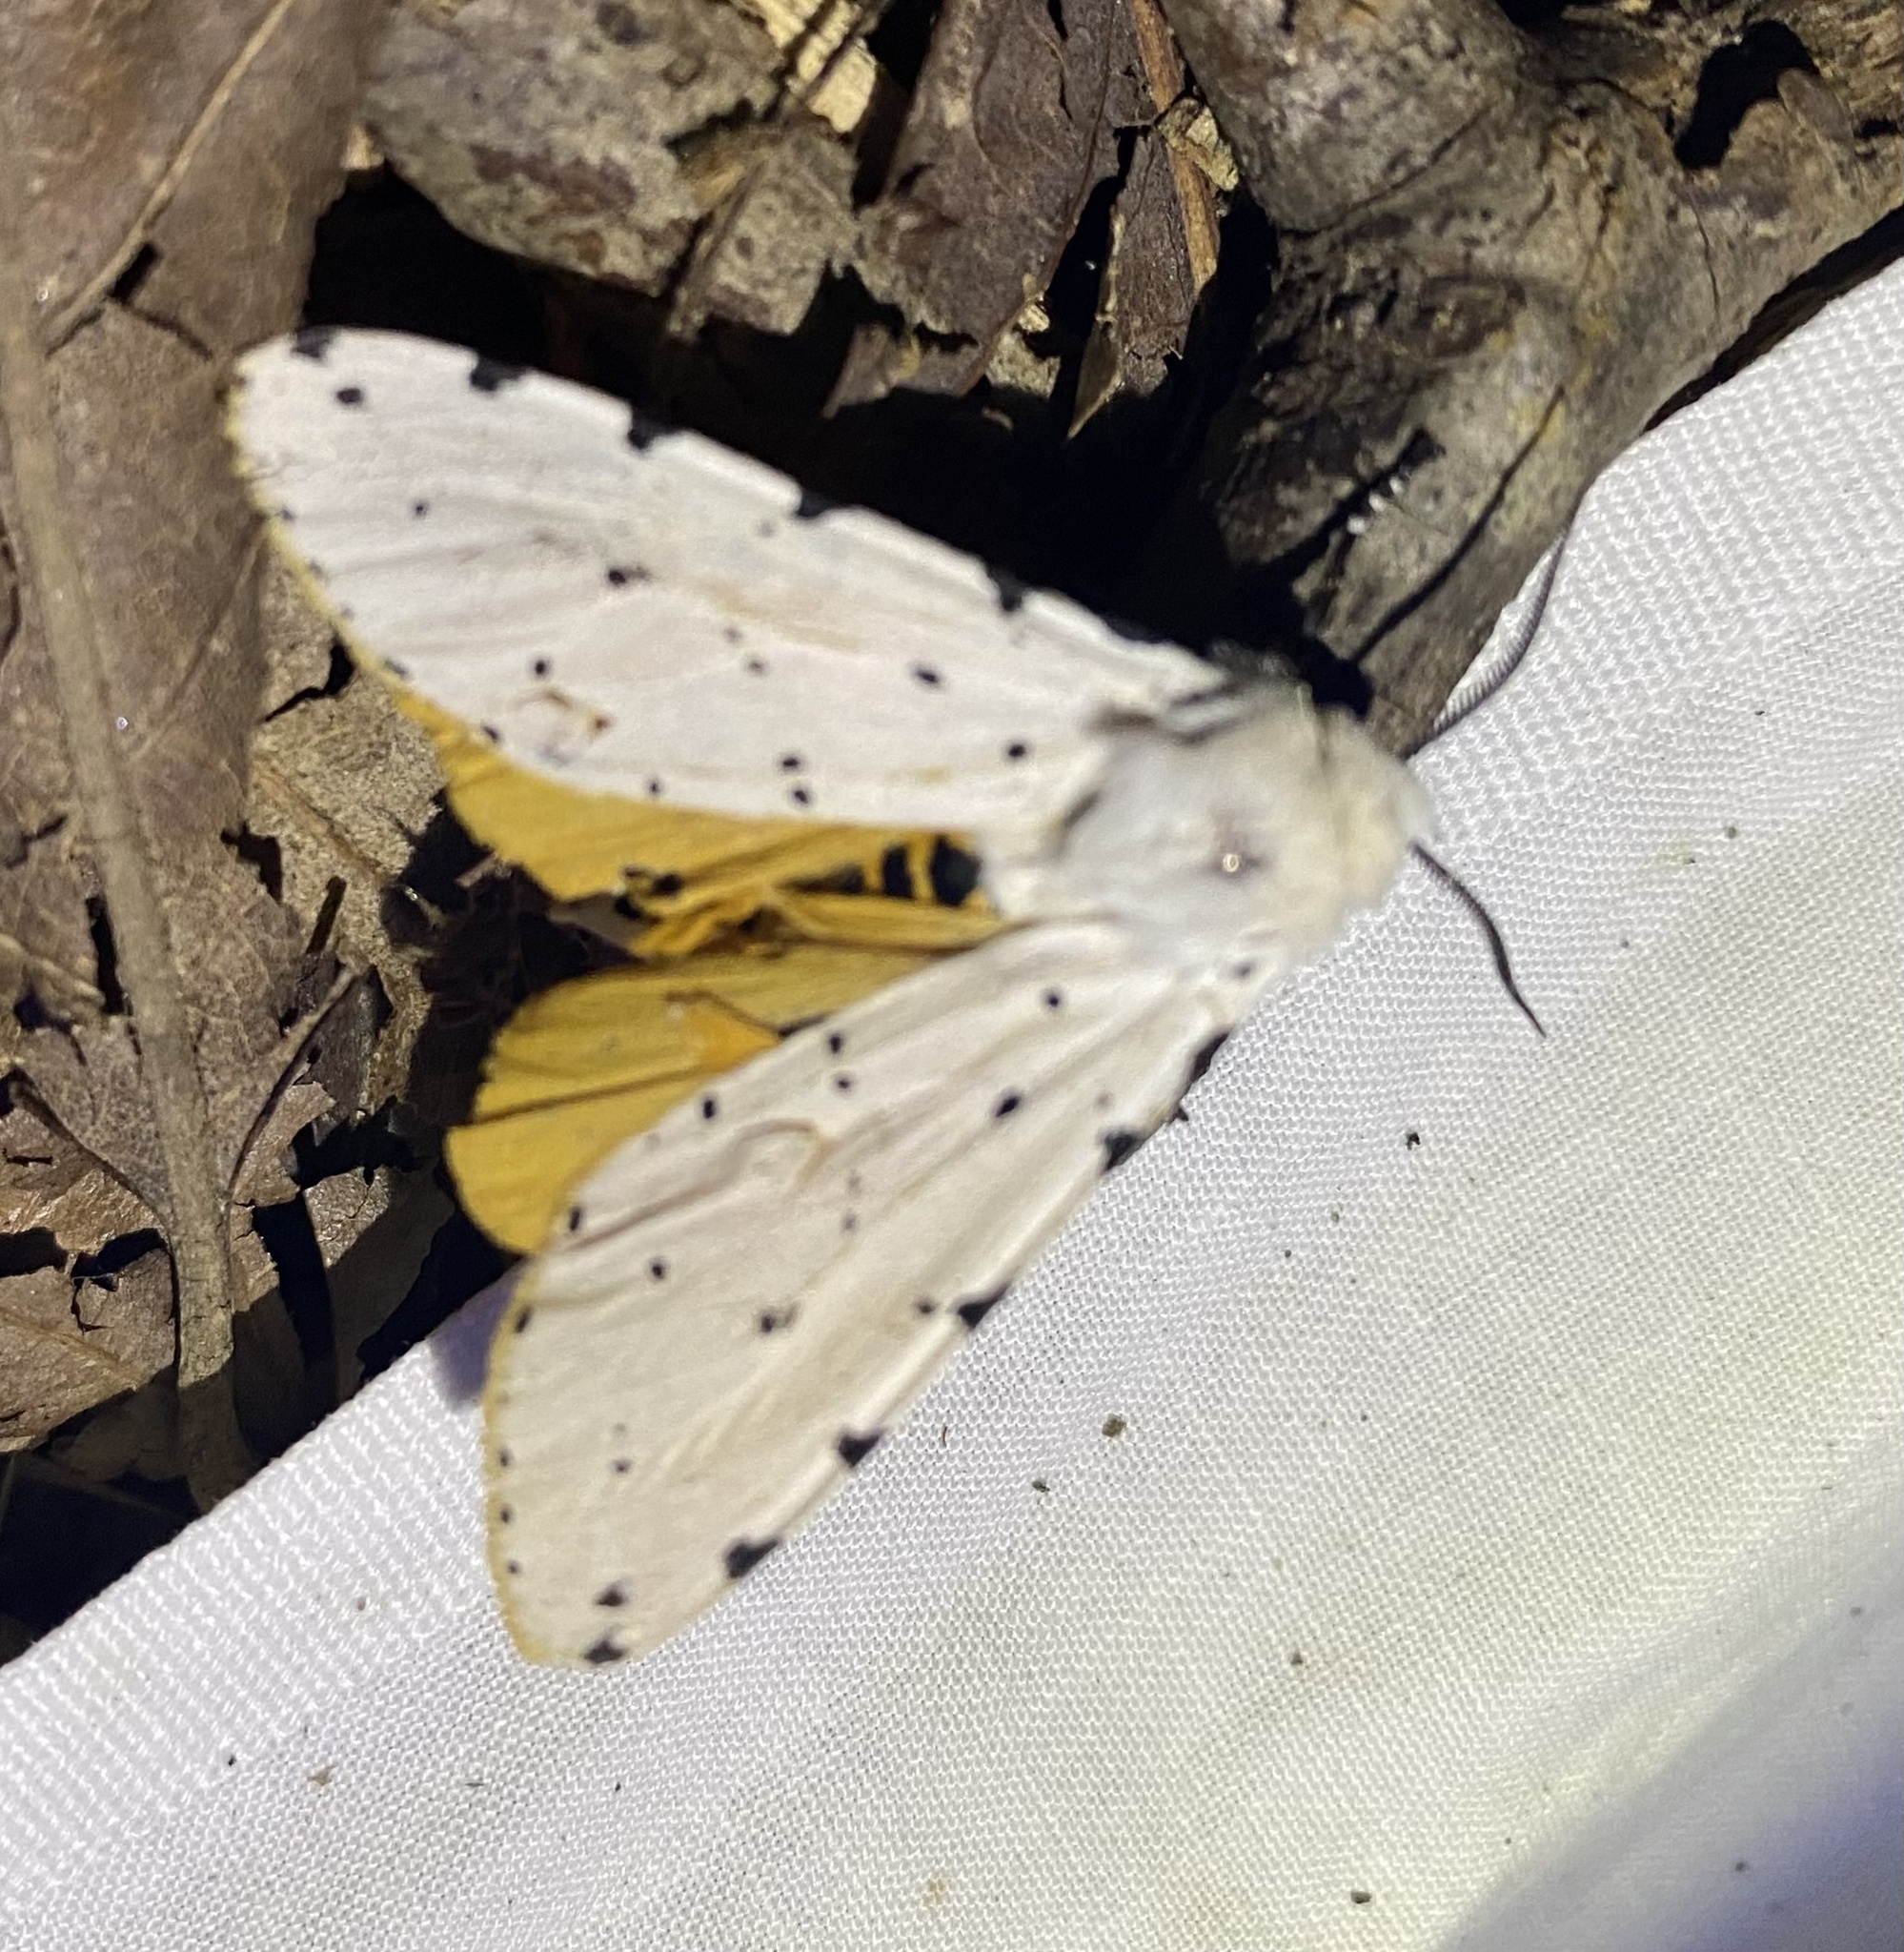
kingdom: Animalia
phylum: Arthropoda
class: Insecta
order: Lepidoptera
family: Erebidae
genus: Estigmene
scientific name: Estigmene acrea
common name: Salt marsh moth
